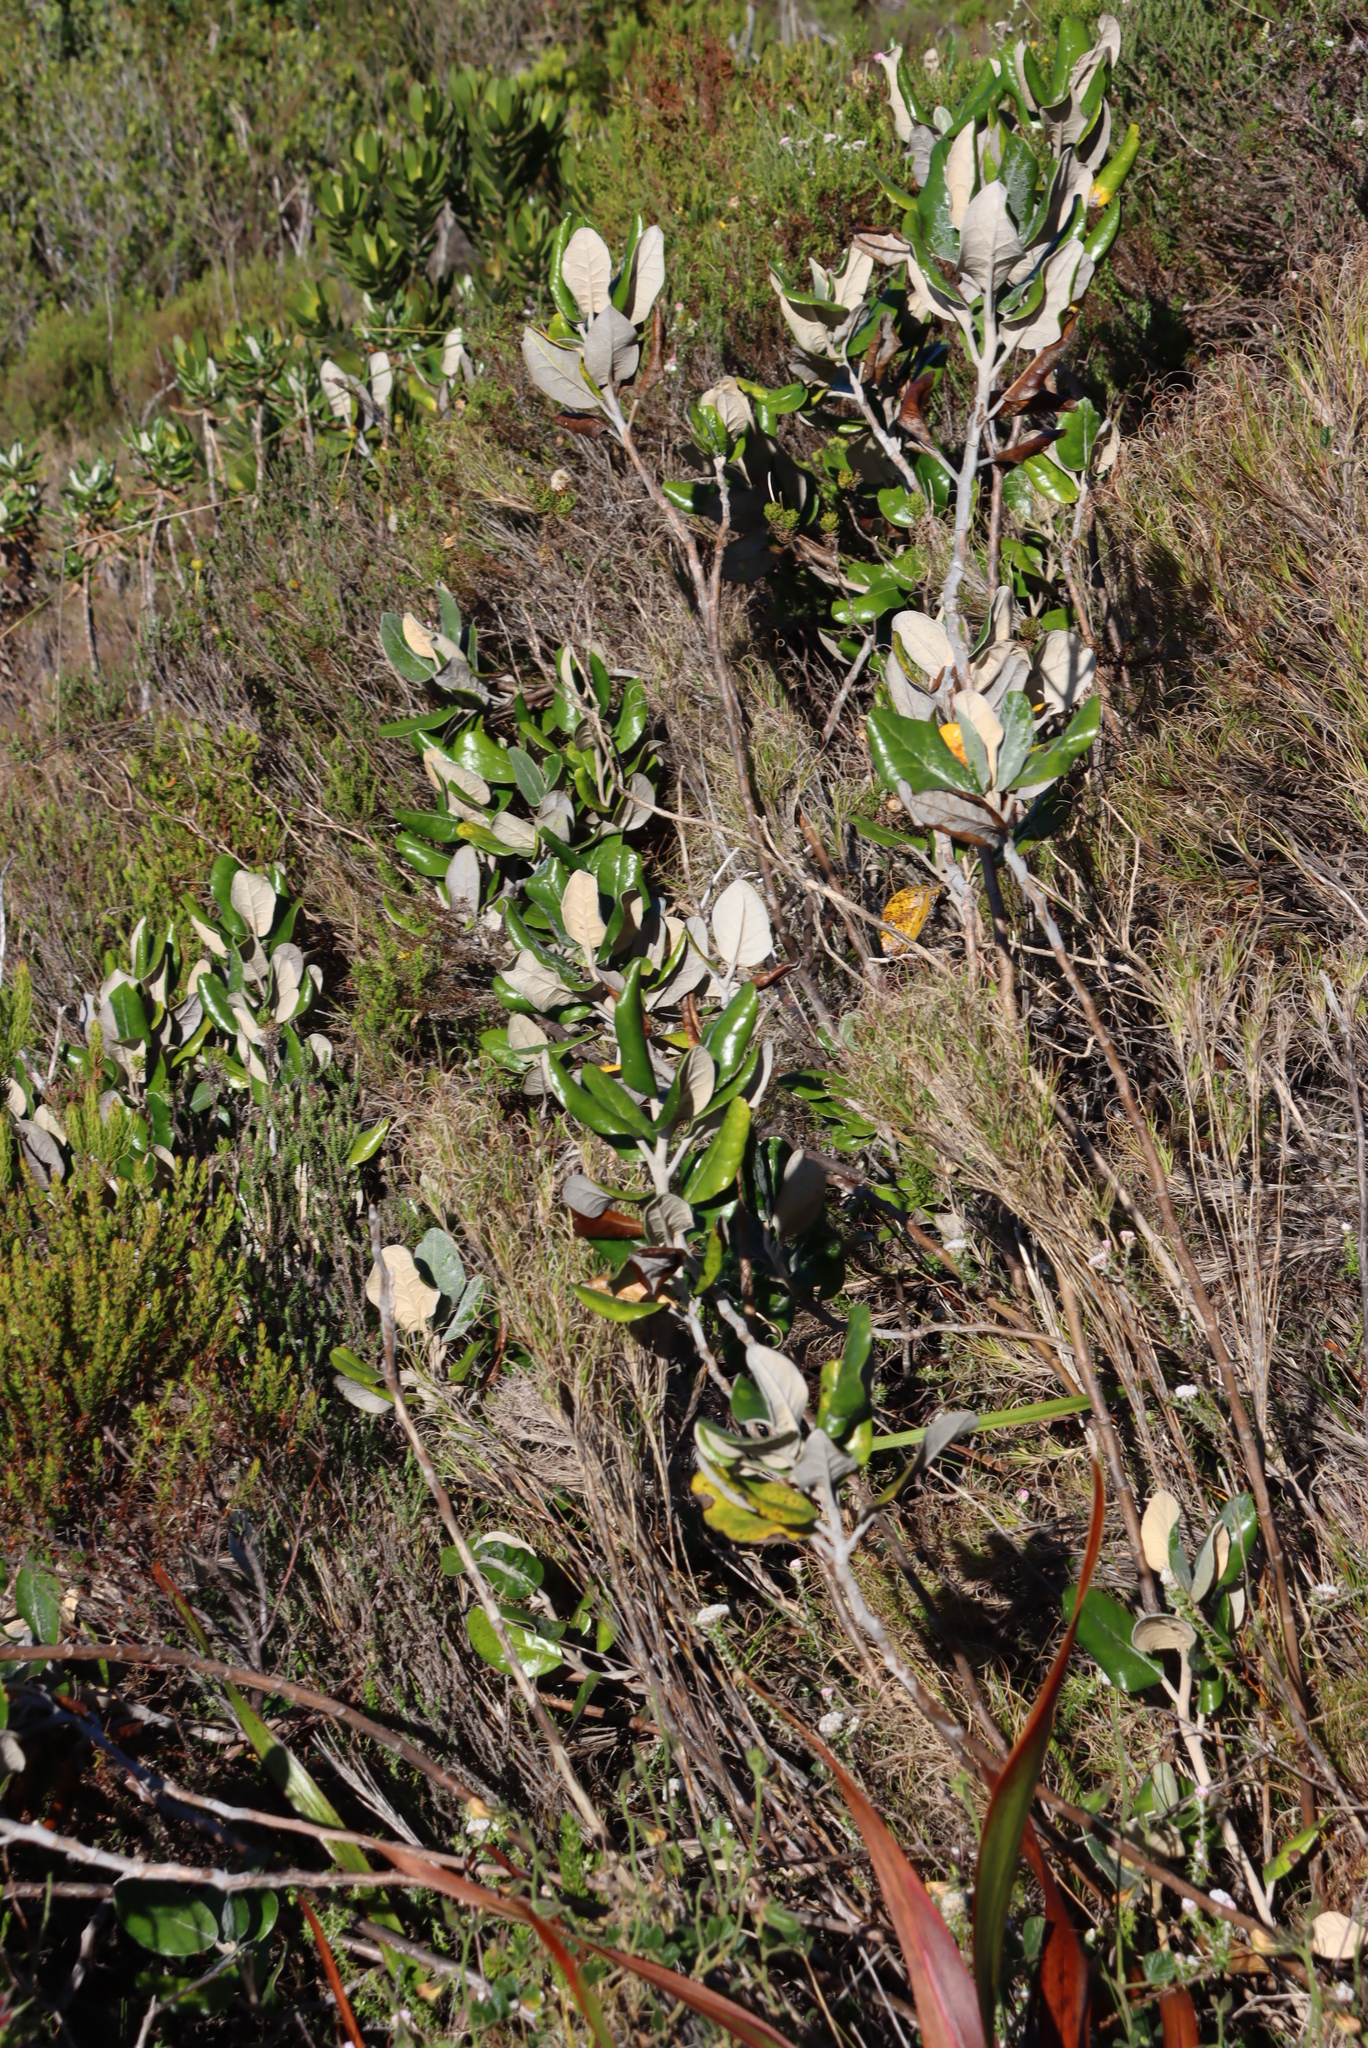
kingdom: Plantae
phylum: Tracheophyta
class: Magnoliopsida
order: Asterales
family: Asteraceae
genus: Capelio
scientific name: Capelio tabularis
